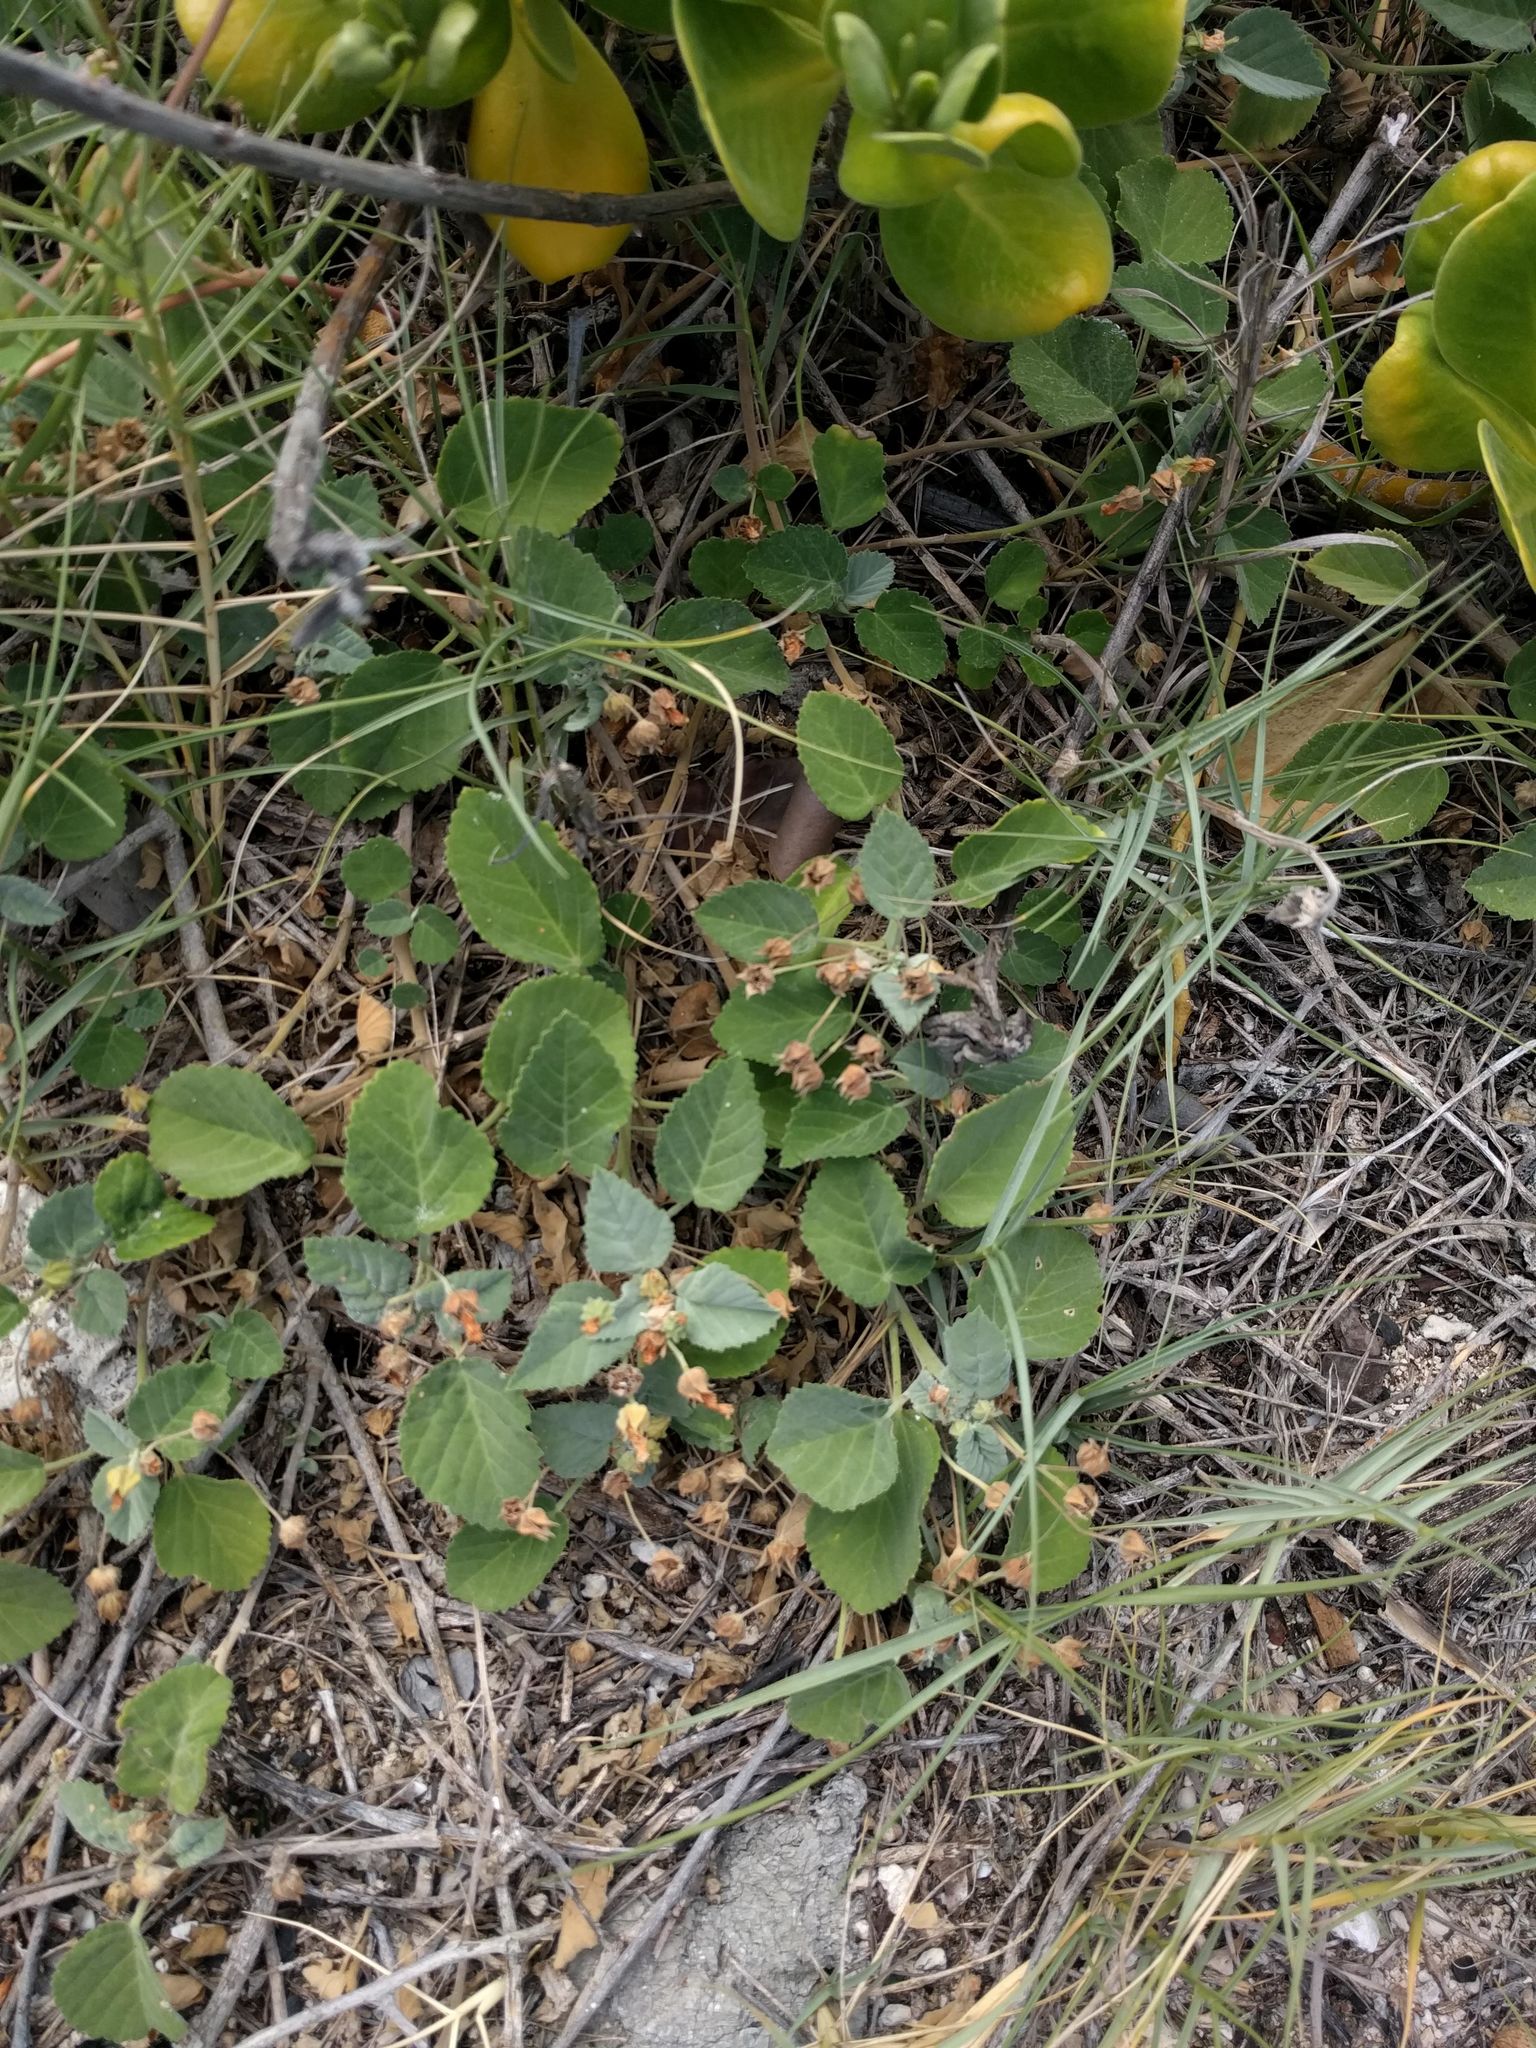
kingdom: Plantae
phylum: Tracheophyta
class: Magnoliopsida
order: Malvales
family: Malvaceae
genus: Sida
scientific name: Sida fallax
